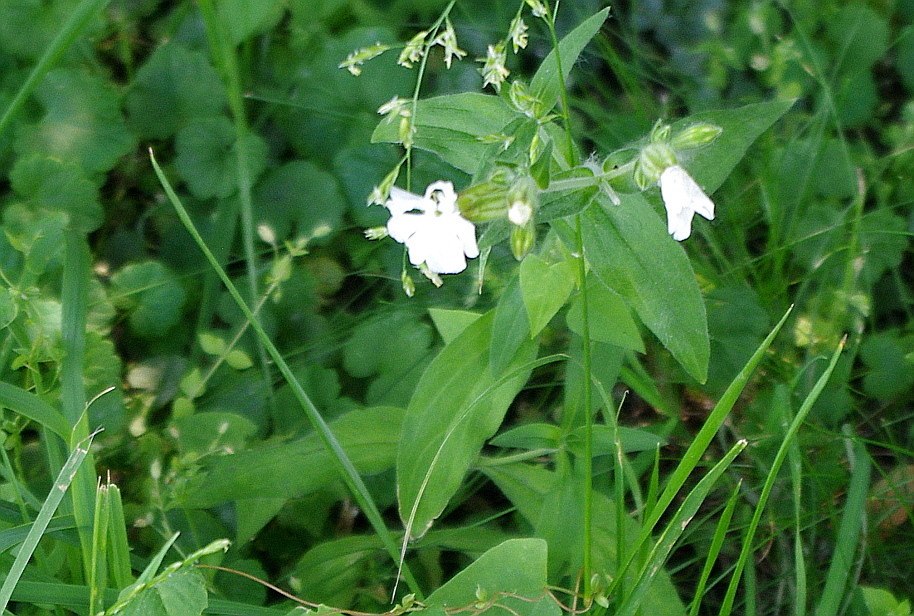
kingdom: Plantae
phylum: Tracheophyta
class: Magnoliopsida
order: Caryophyllales
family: Caryophyllaceae
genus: Silene
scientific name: Silene latifolia
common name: White campion
